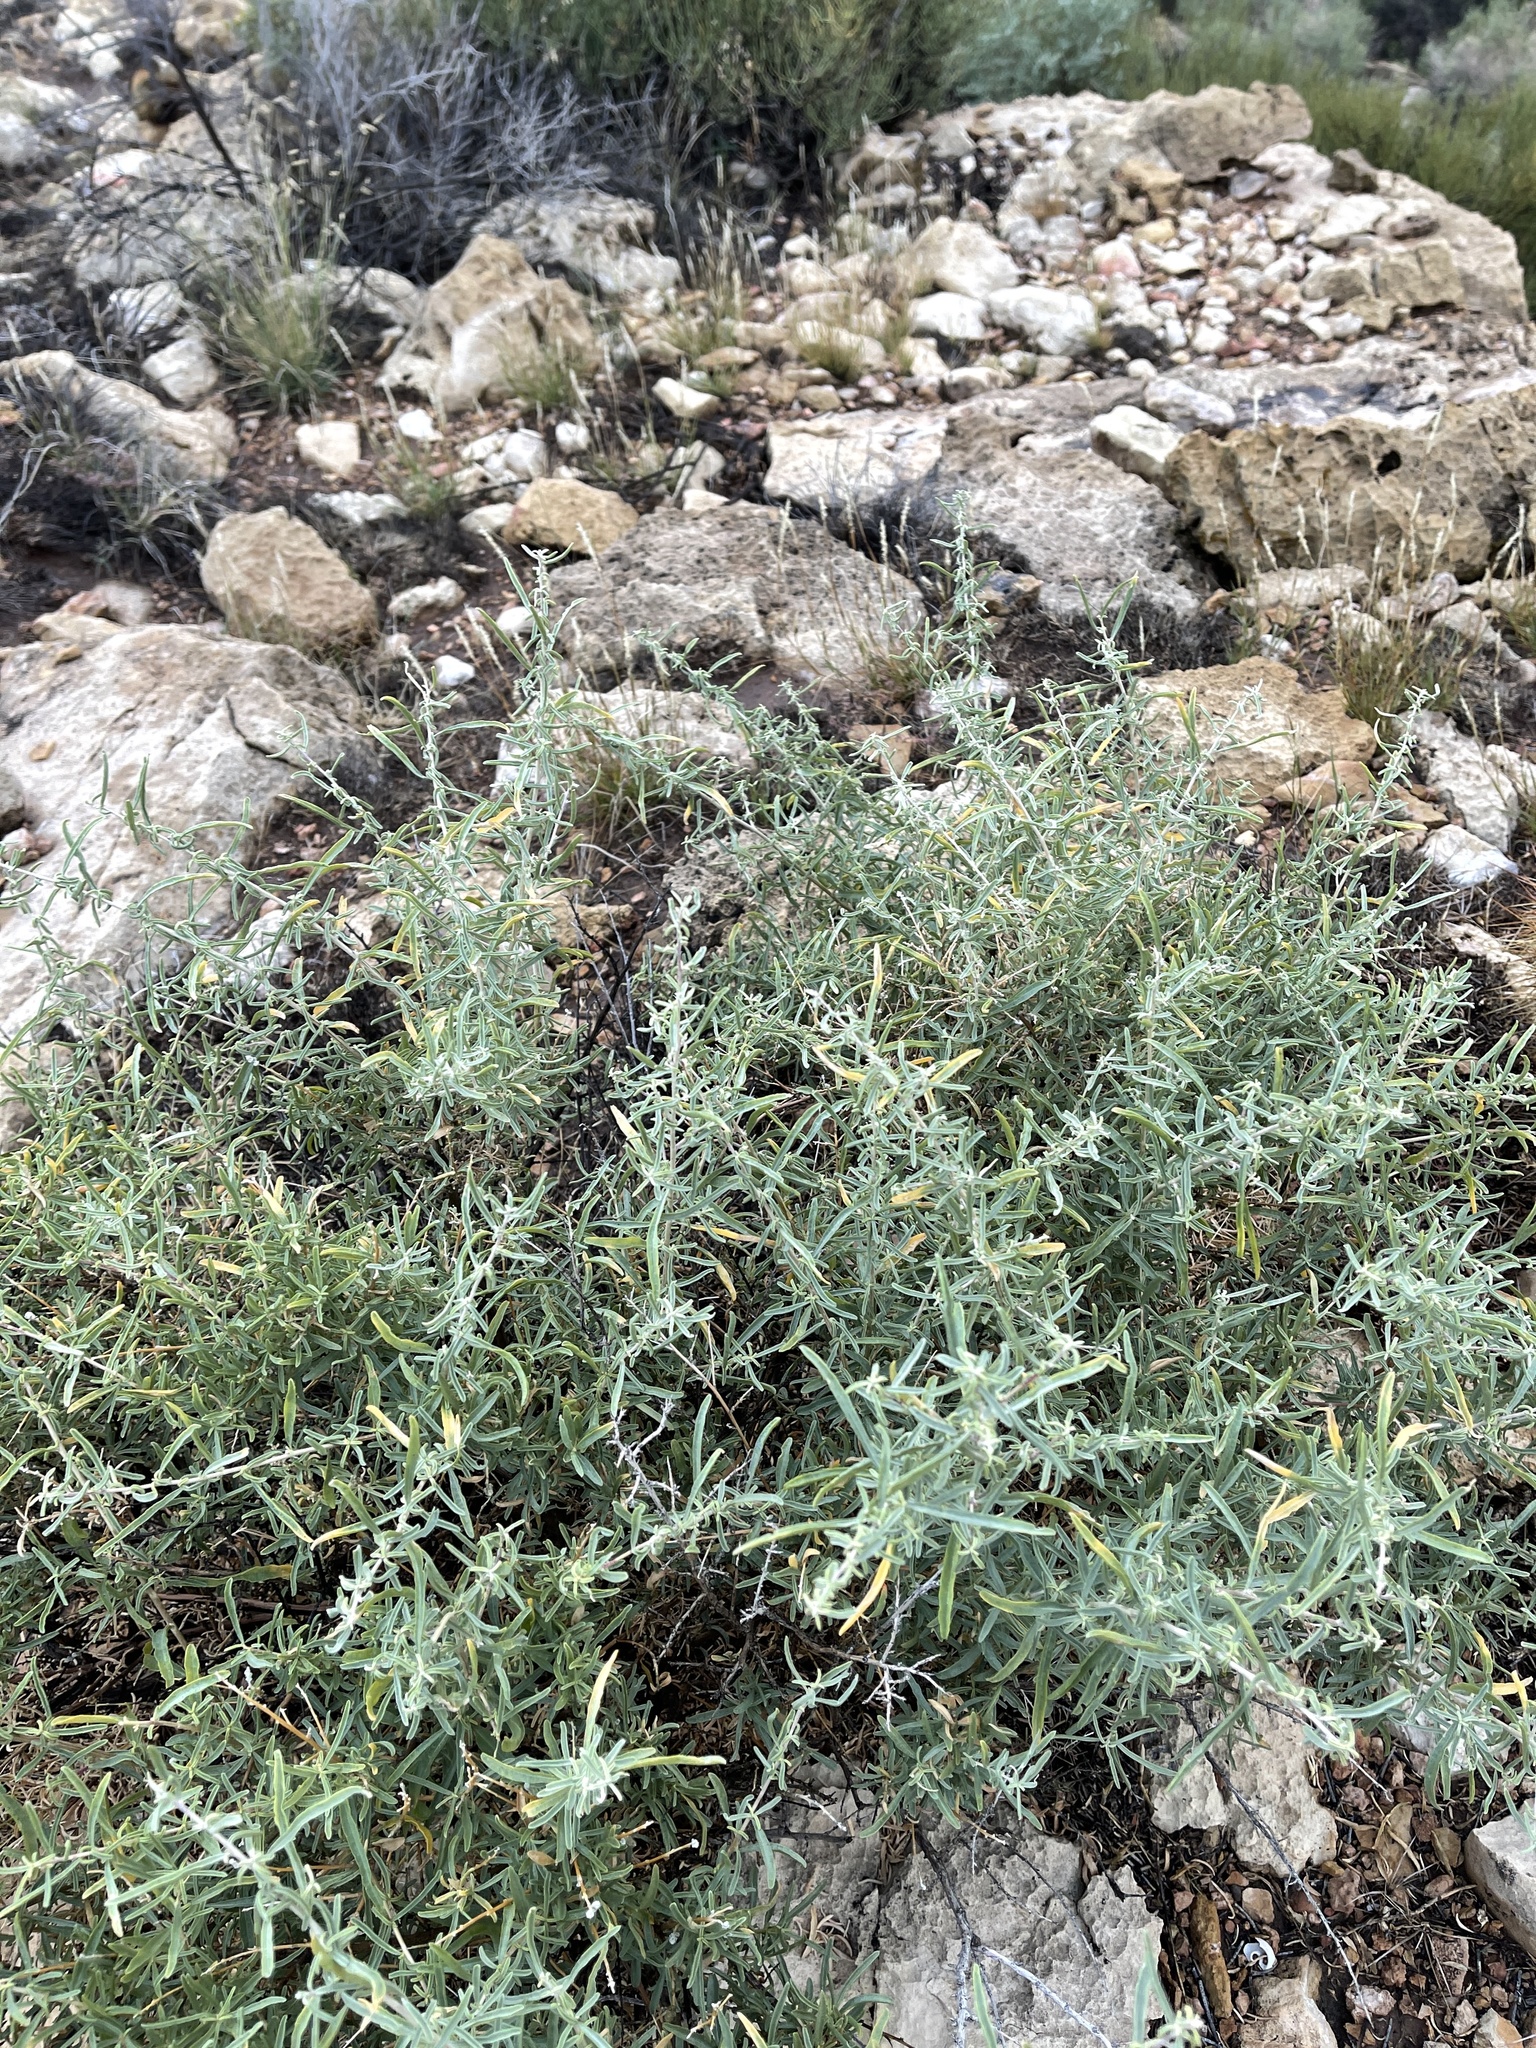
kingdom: Plantae
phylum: Tracheophyta
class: Magnoliopsida
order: Caryophyllales
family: Amaranthaceae
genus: Atriplex
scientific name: Atriplex canescens
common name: Four-wing saltbush
